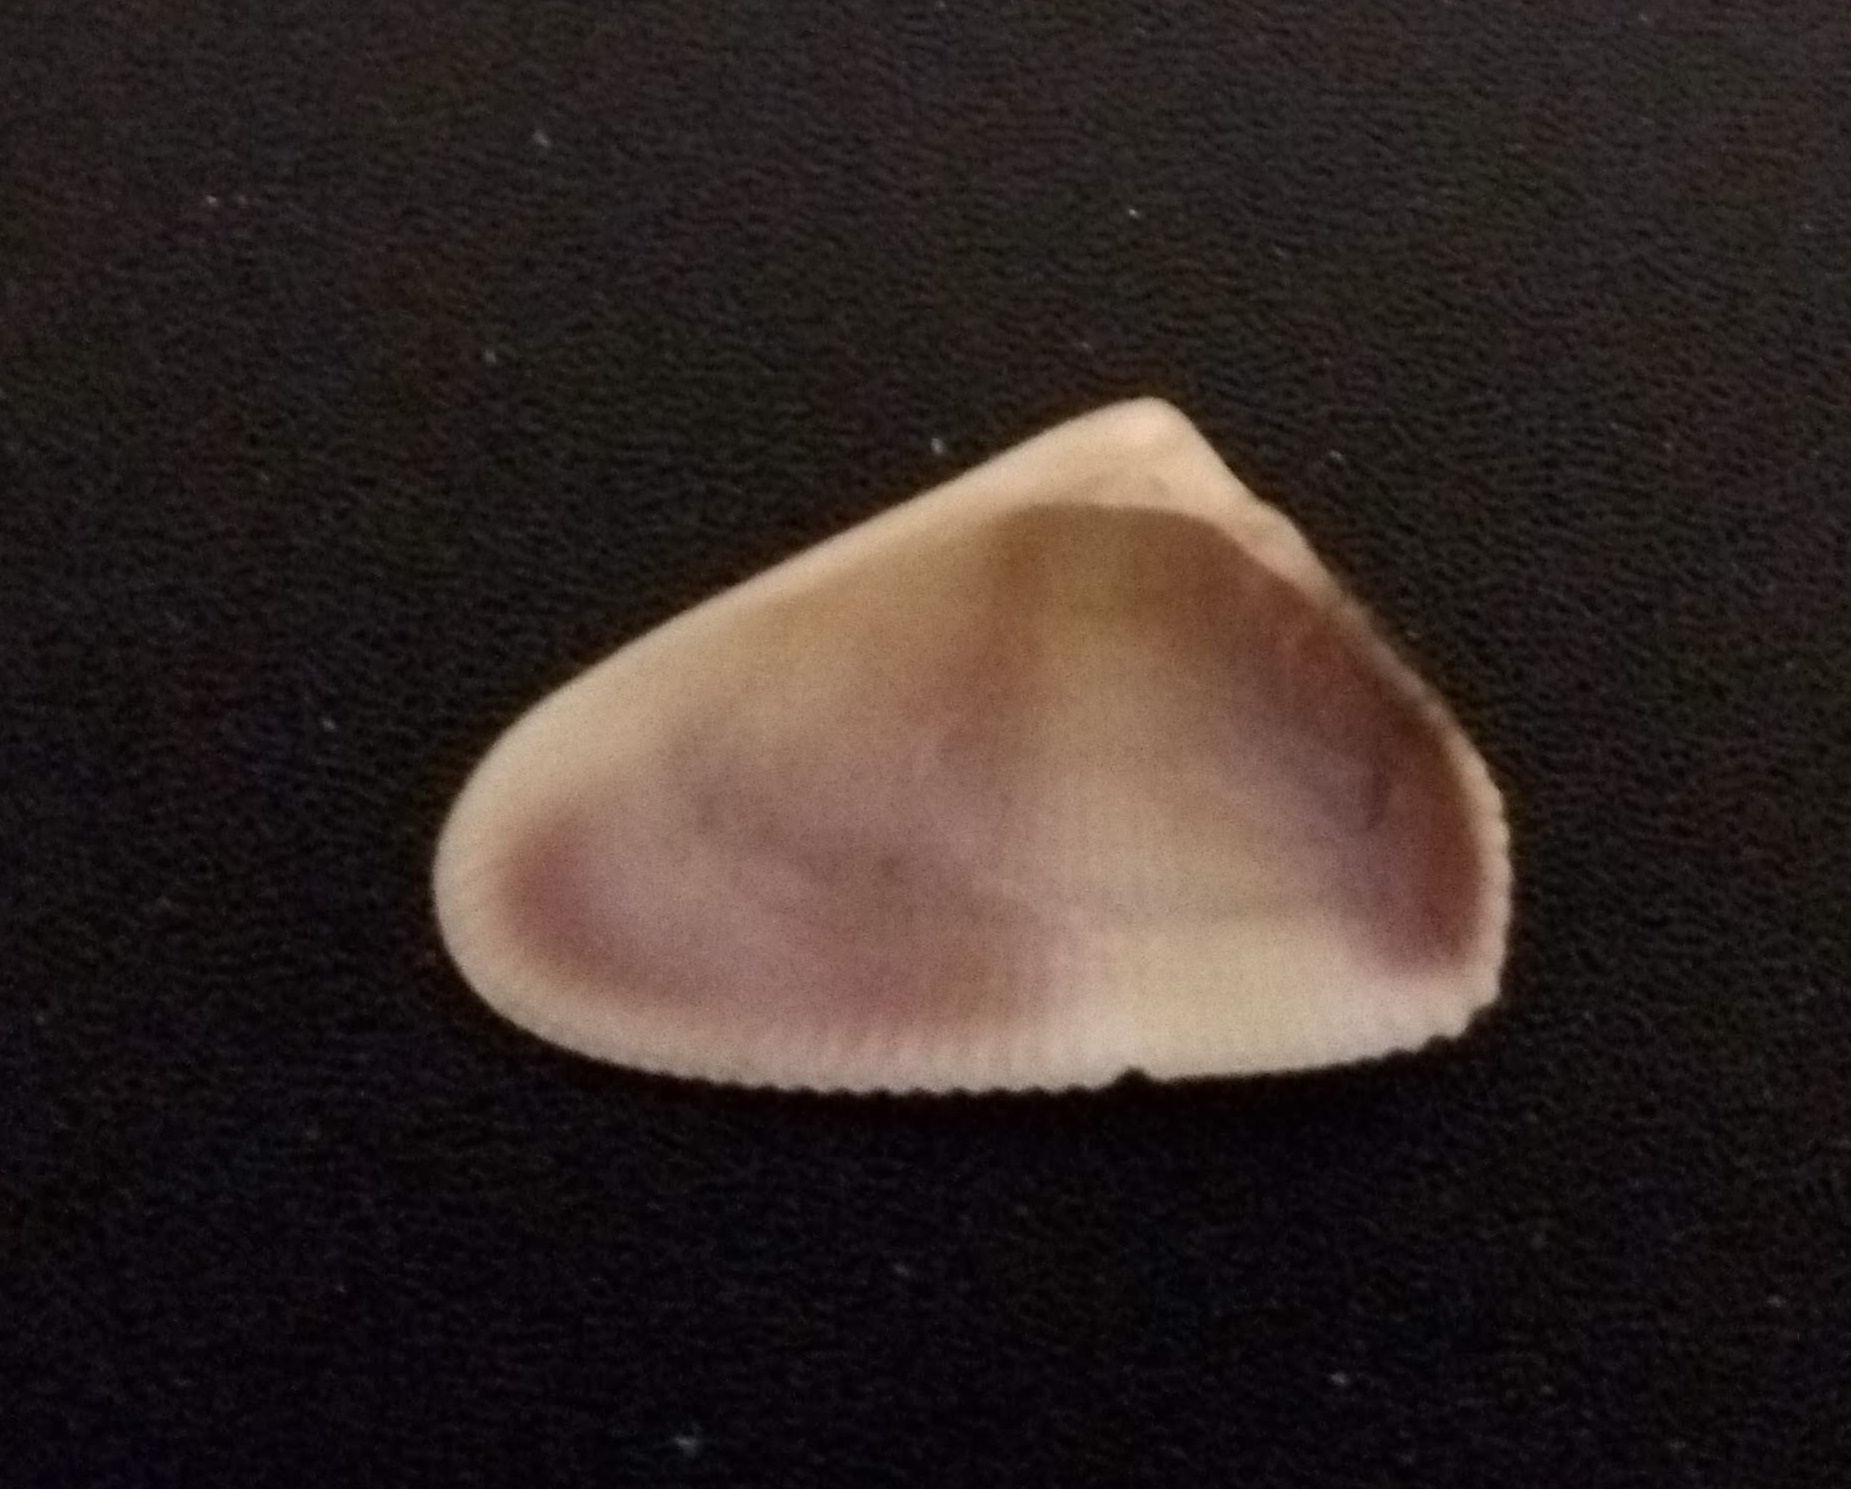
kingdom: Animalia
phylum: Mollusca
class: Bivalvia
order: Cardiida
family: Donacidae
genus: Donax
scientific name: Donax hanleyanus
